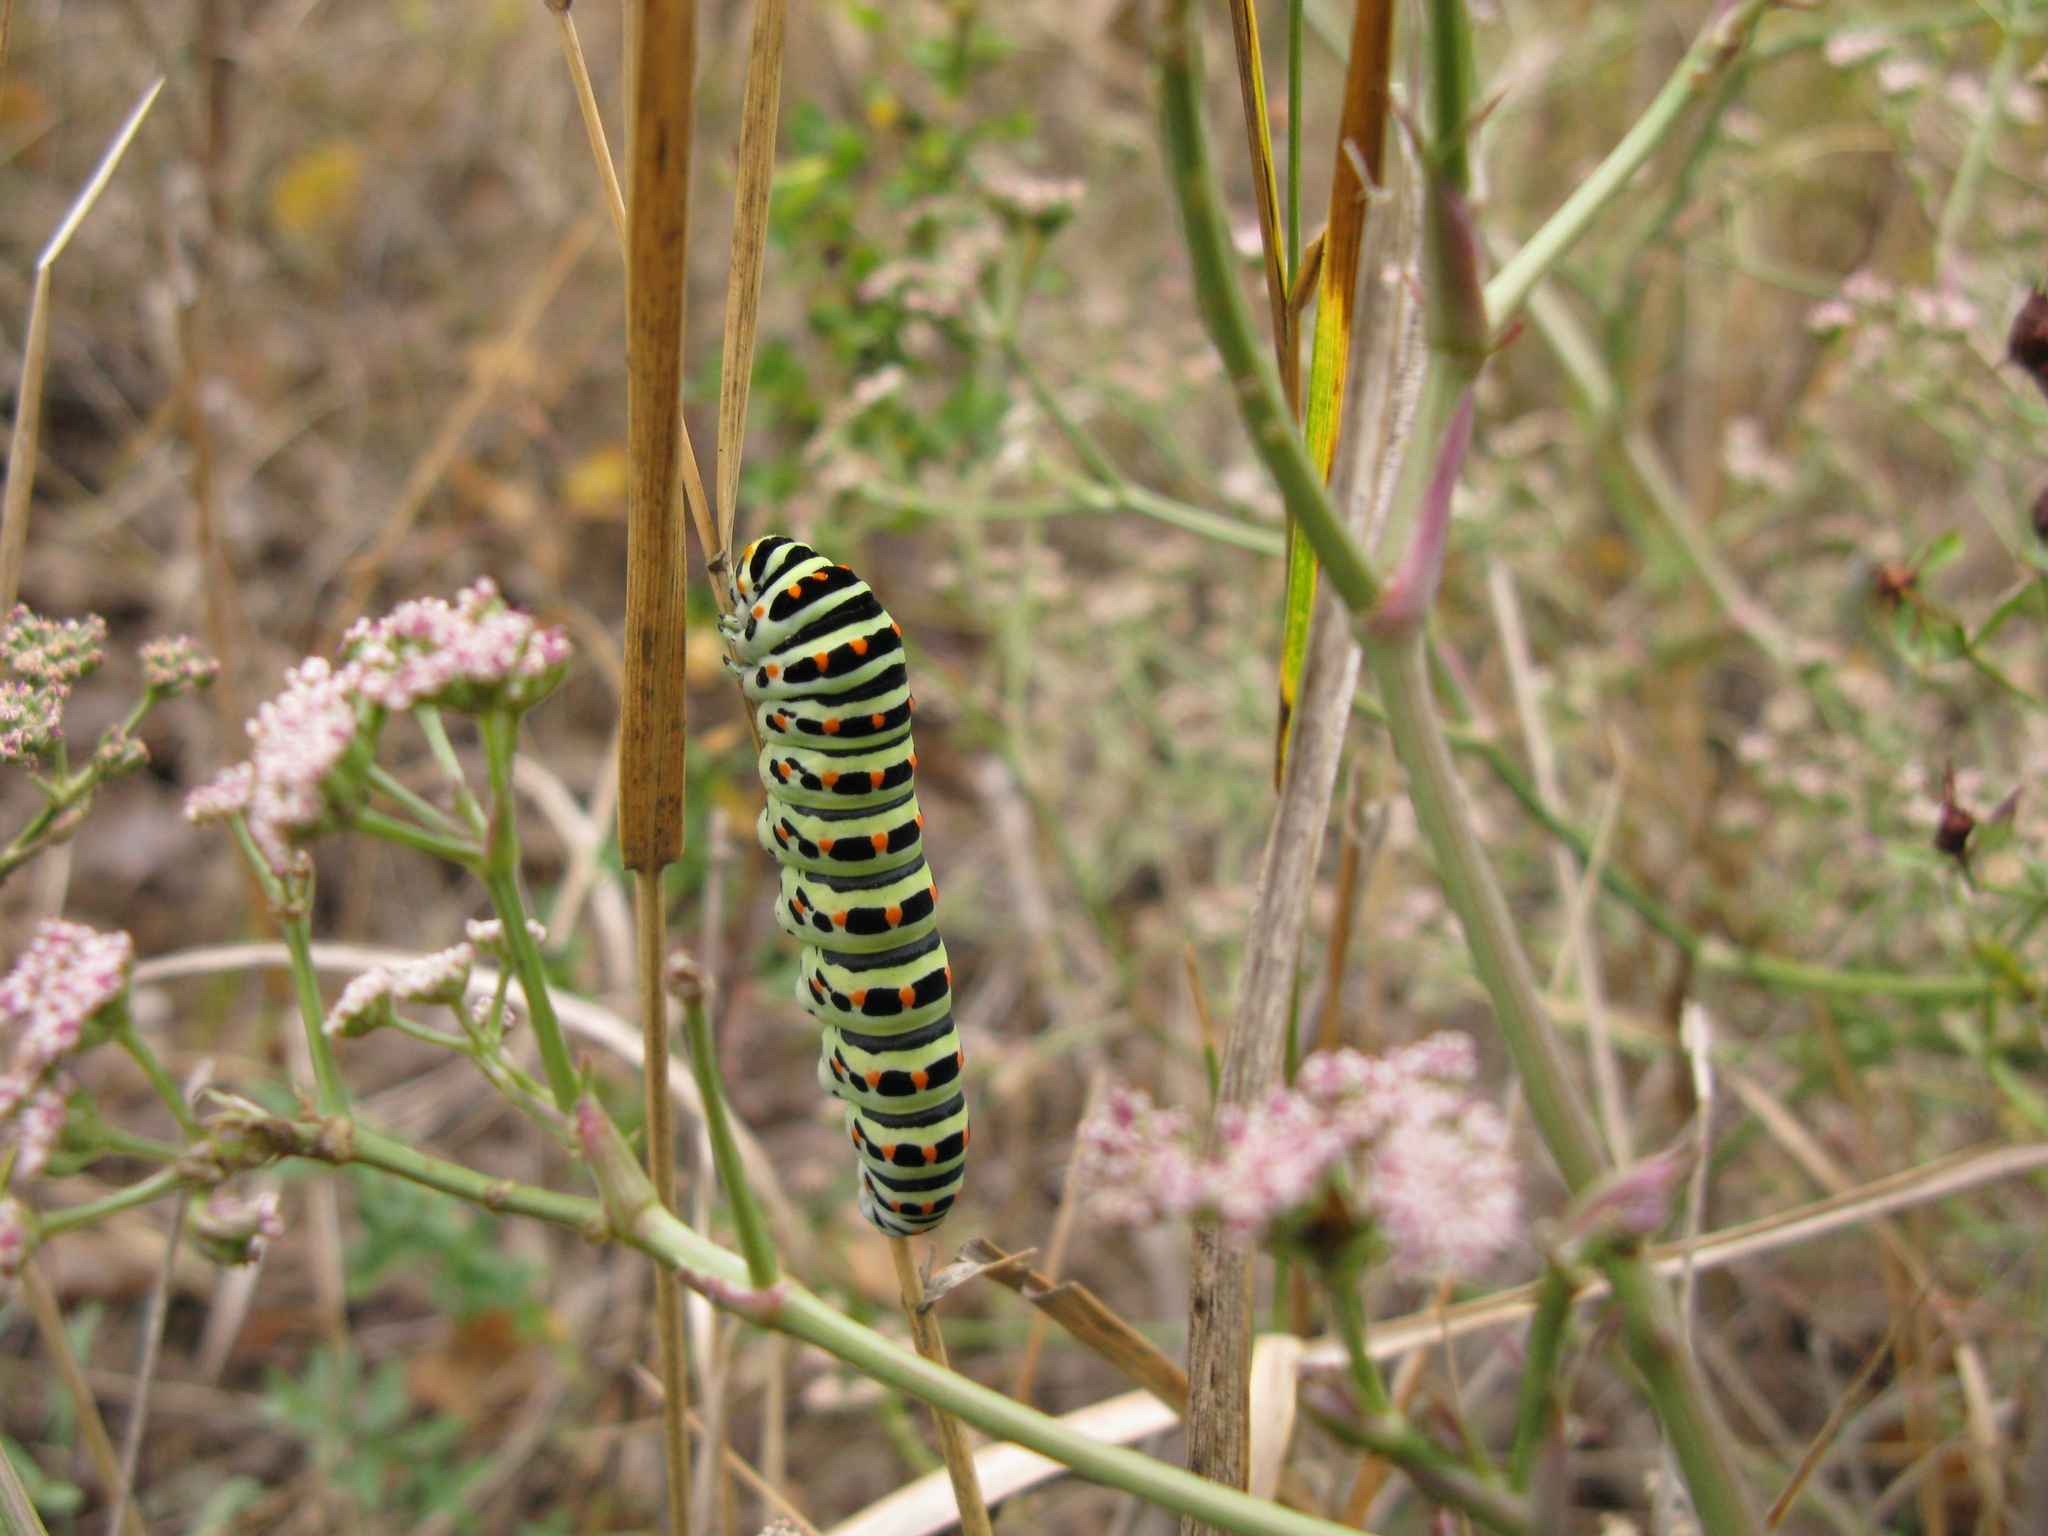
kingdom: Animalia
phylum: Arthropoda
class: Insecta
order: Lepidoptera
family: Papilionidae
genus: Papilio
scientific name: Papilio machaon
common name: Swallowtail
